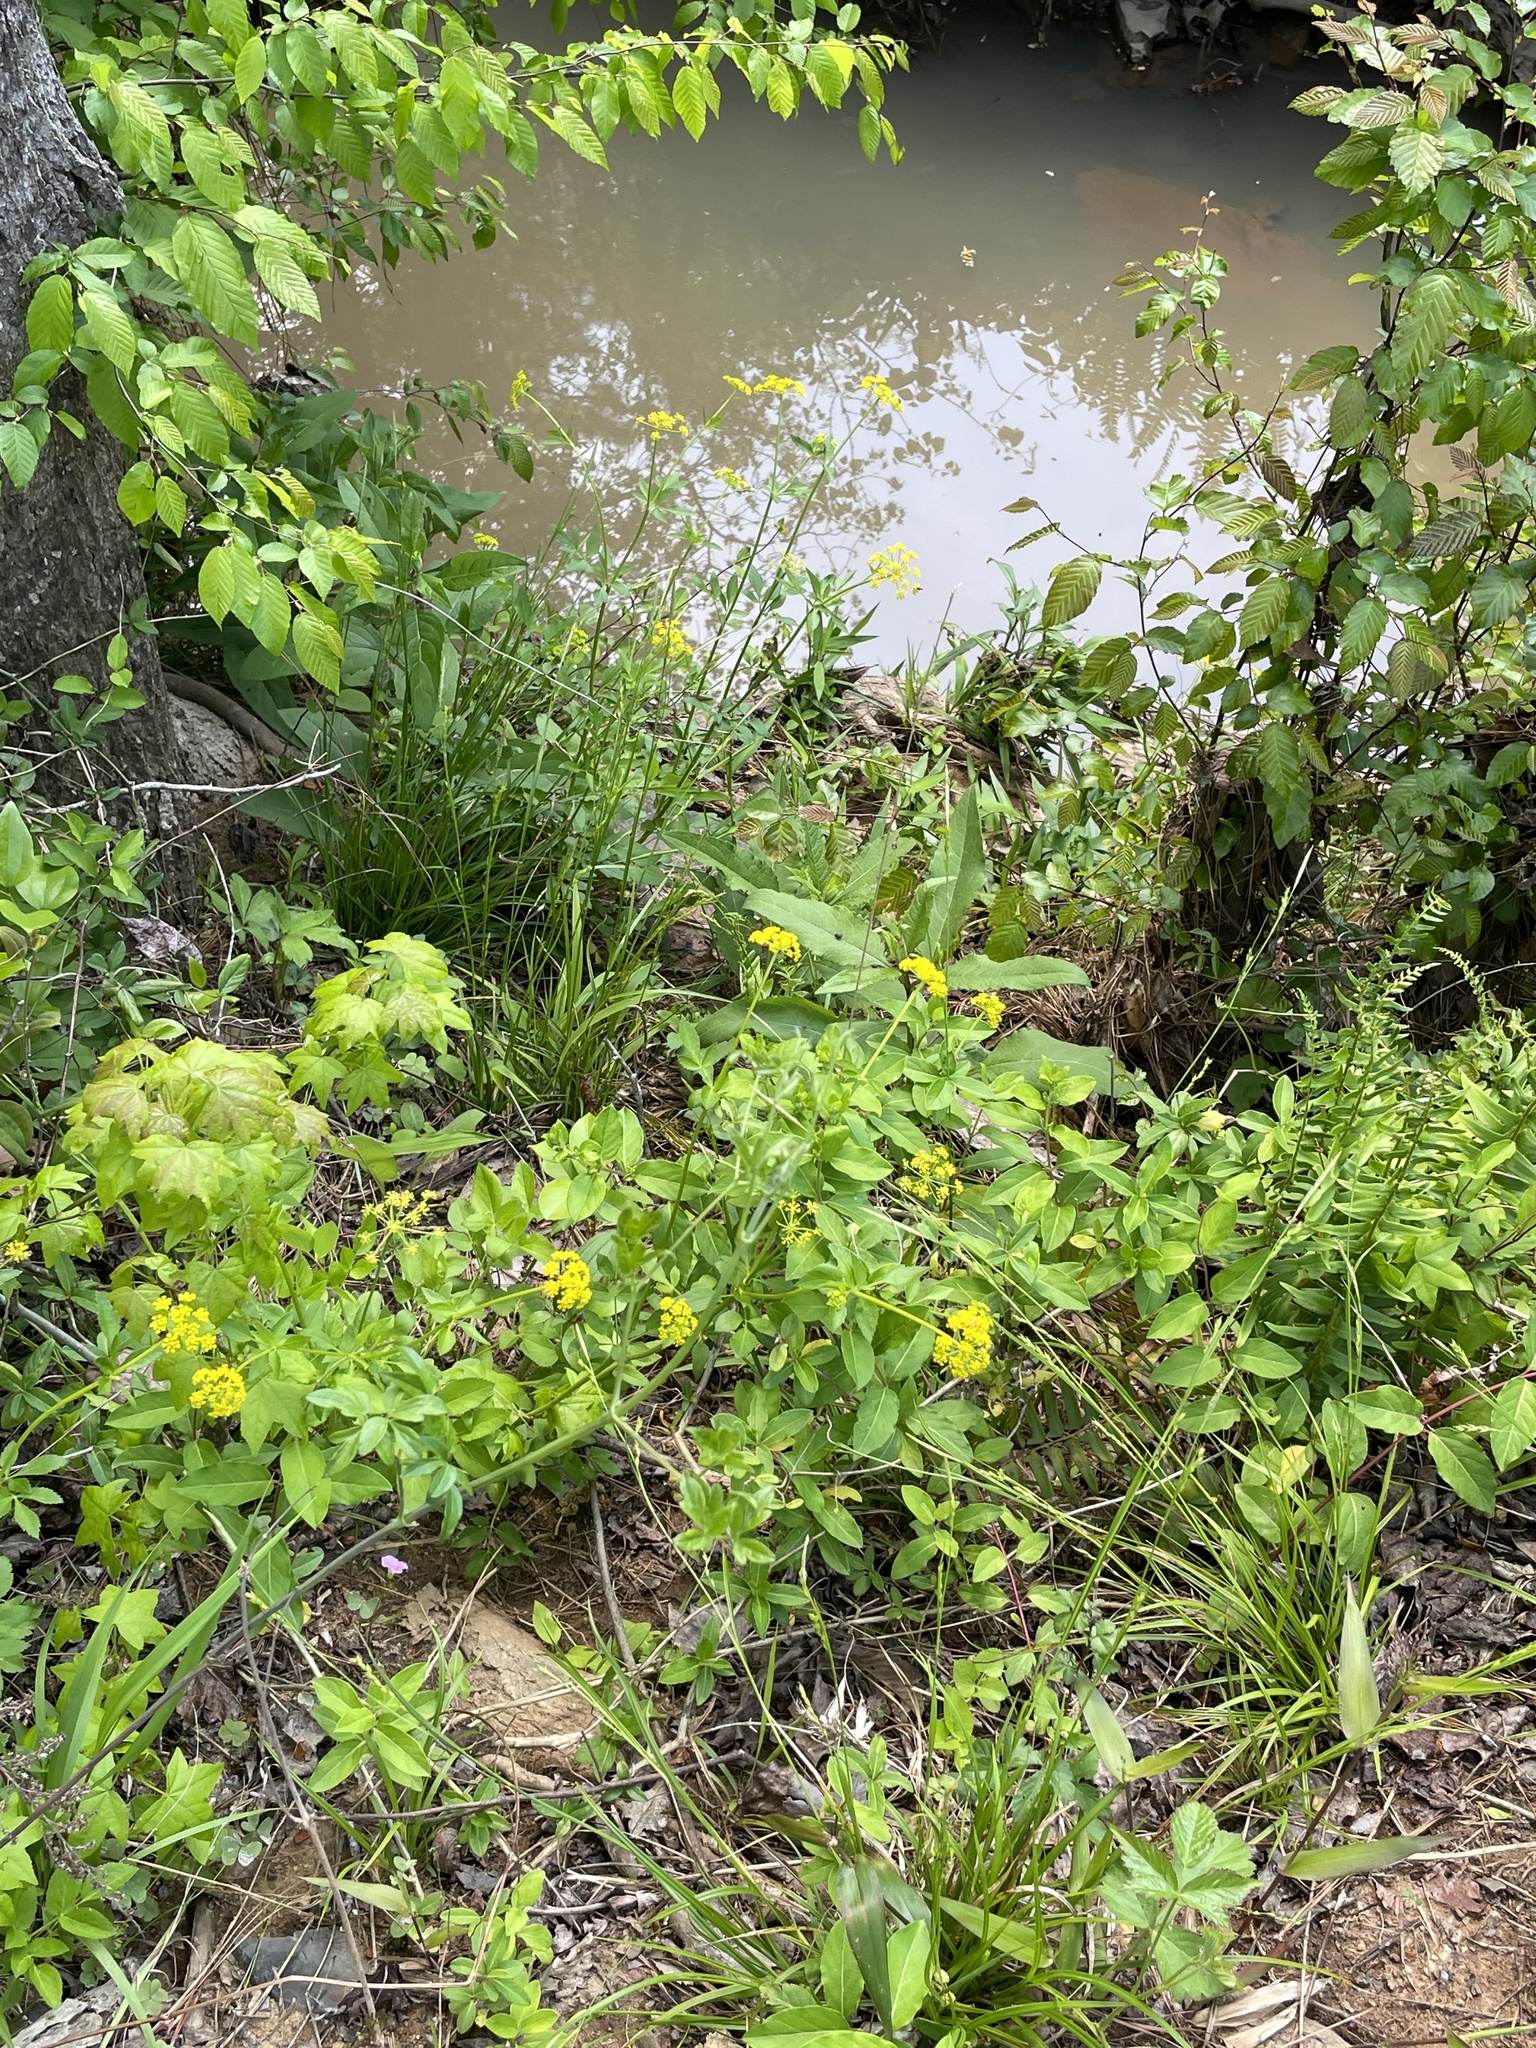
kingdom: Plantae
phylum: Tracheophyta
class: Magnoliopsida
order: Apiales
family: Apiaceae
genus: Thaspium
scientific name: Thaspium barbinode
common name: Bearded meadow-parsnip
